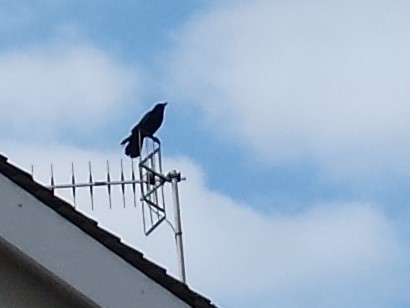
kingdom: Animalia
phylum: Chordata
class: Aves
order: Passeriformes
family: Corvidae
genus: Corvus
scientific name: Corvus corone
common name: Carrion crow
